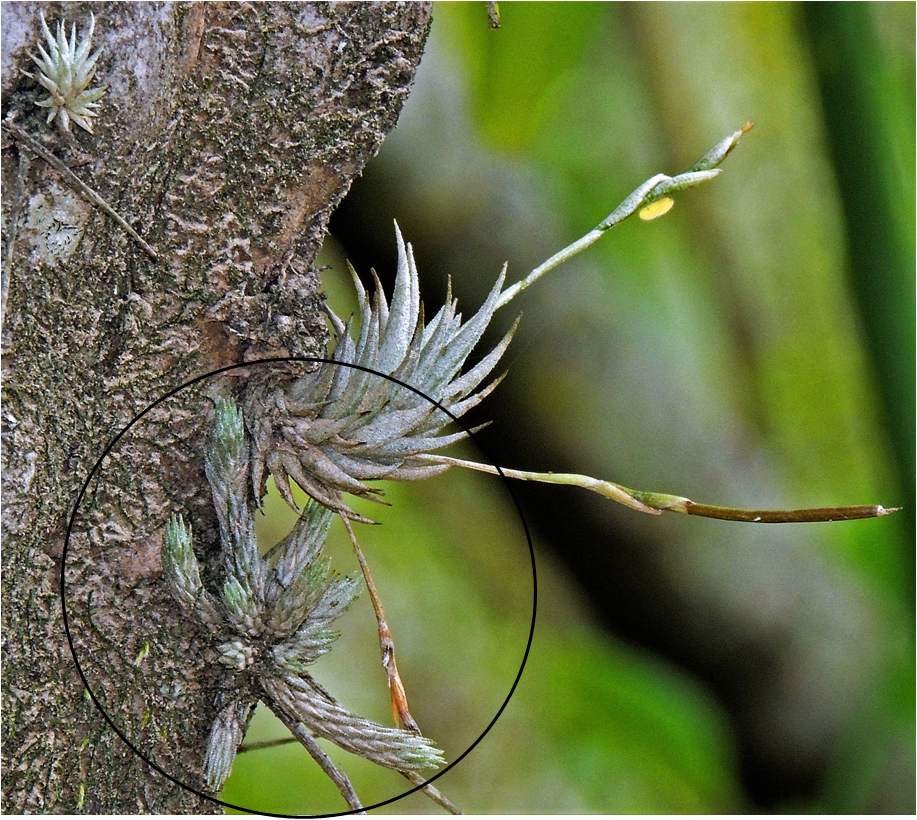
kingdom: Plantae
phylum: Tracheophyta
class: Liliopsida
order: Poales
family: Bromeliaceae
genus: Tillandsia
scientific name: Tillandsia minutiflora
